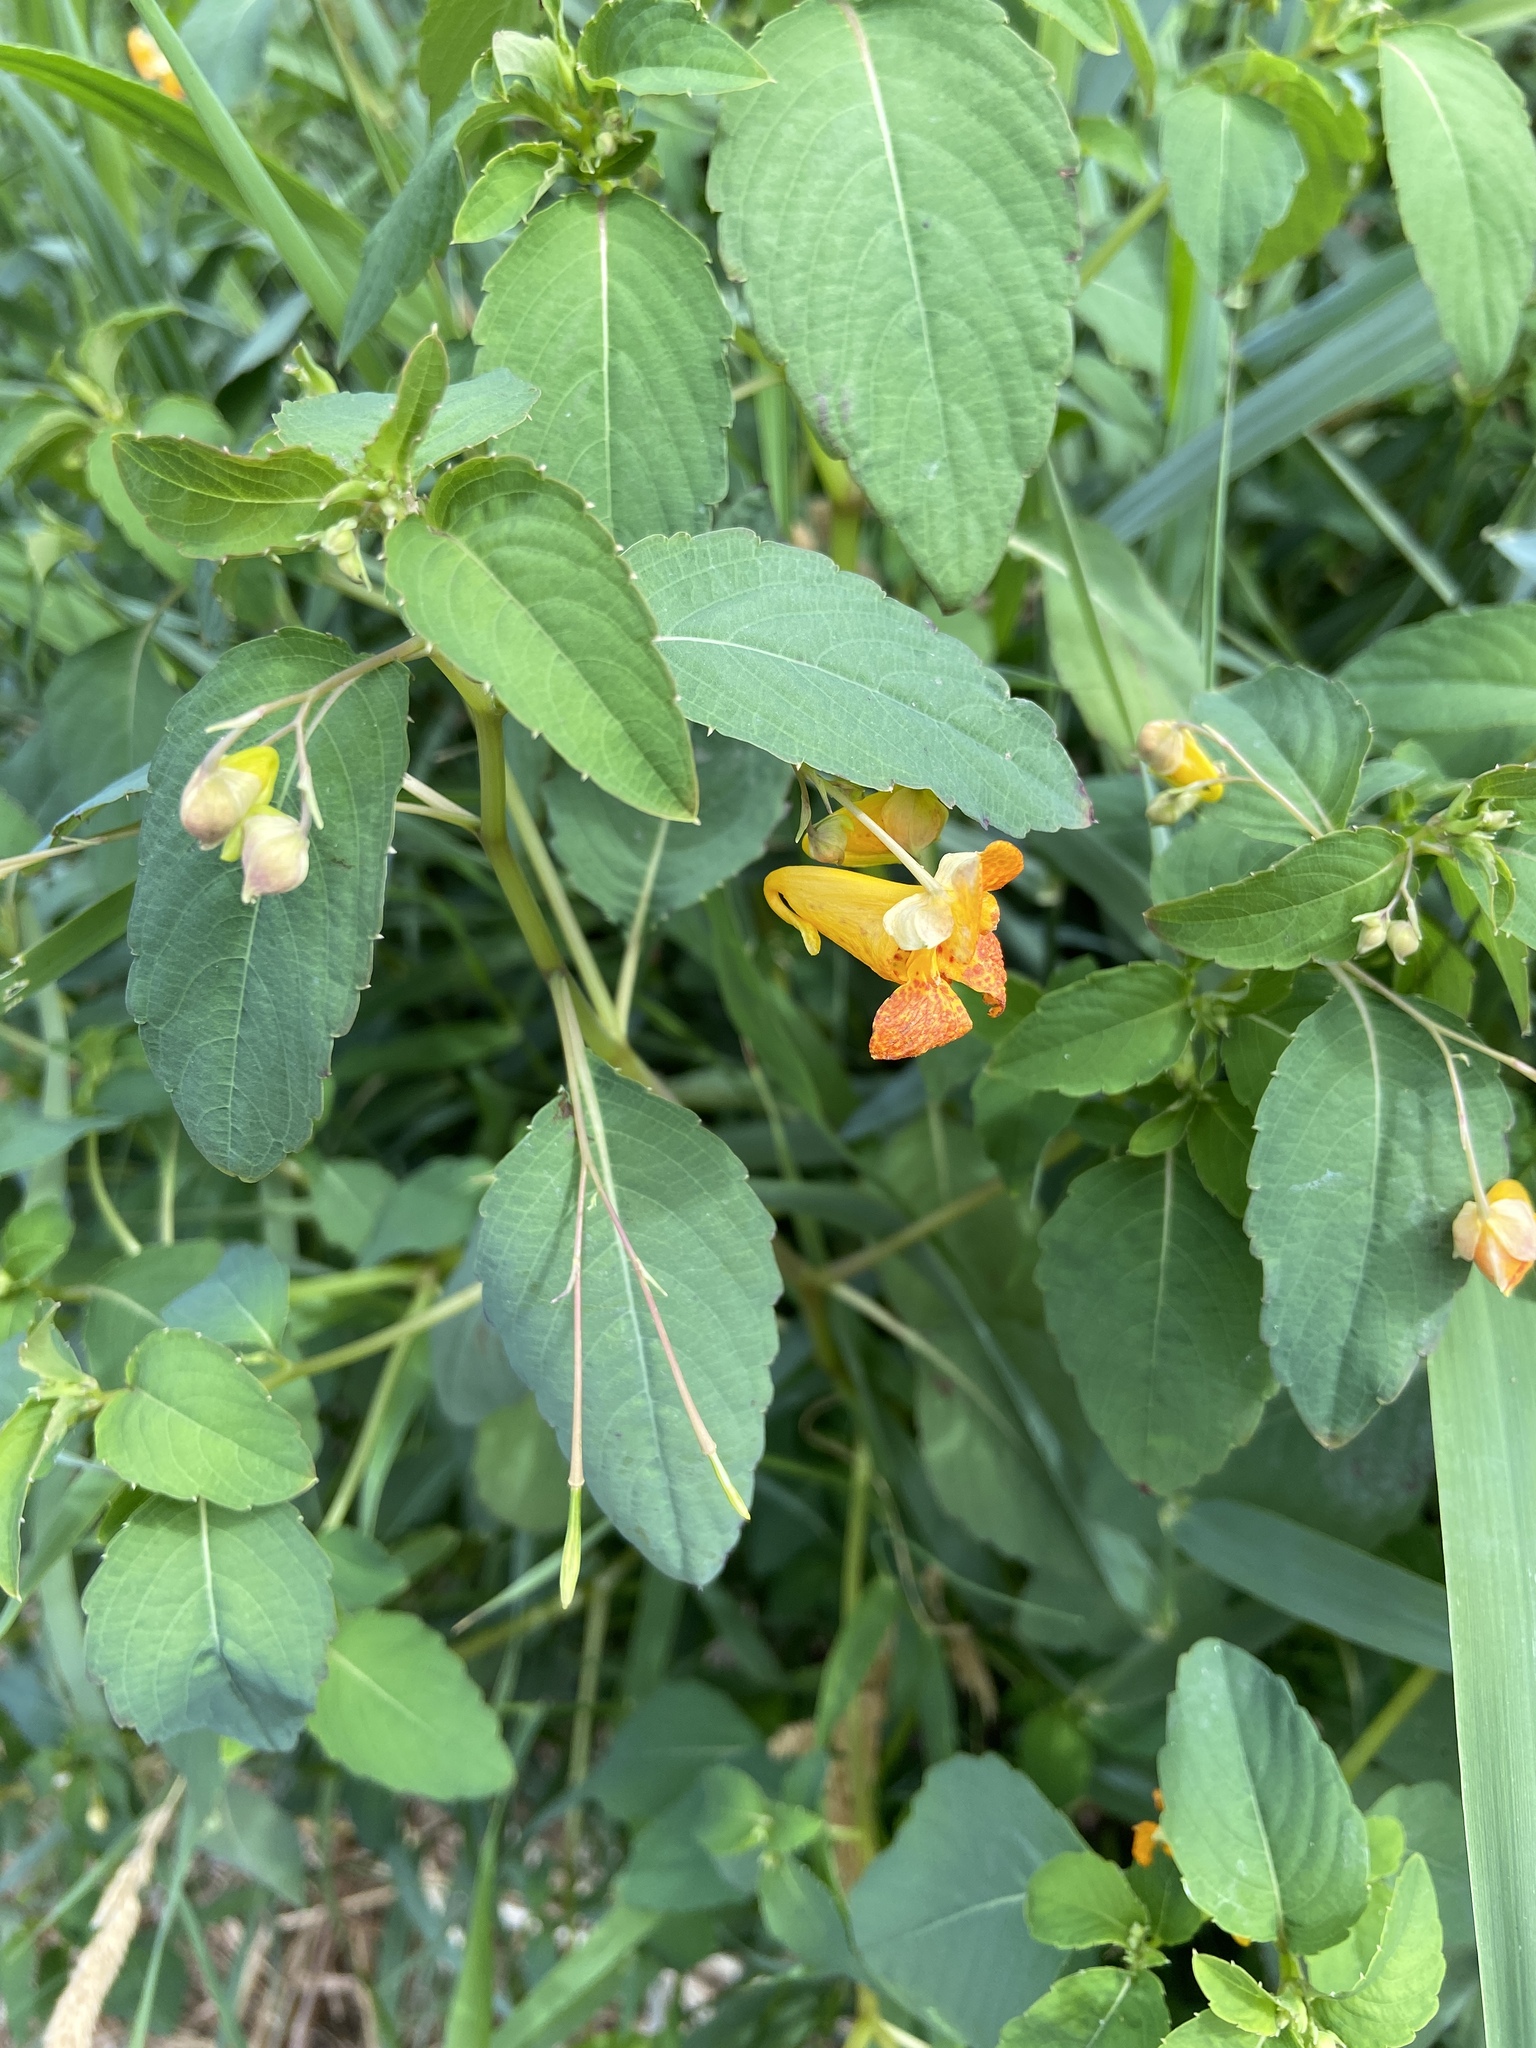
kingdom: Plantae
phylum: Tracheophyta
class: Magnoliopsida
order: Ericales
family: Balsaminaceae
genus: Impatiens
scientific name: Impatiens capensis
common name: Orange balsam
